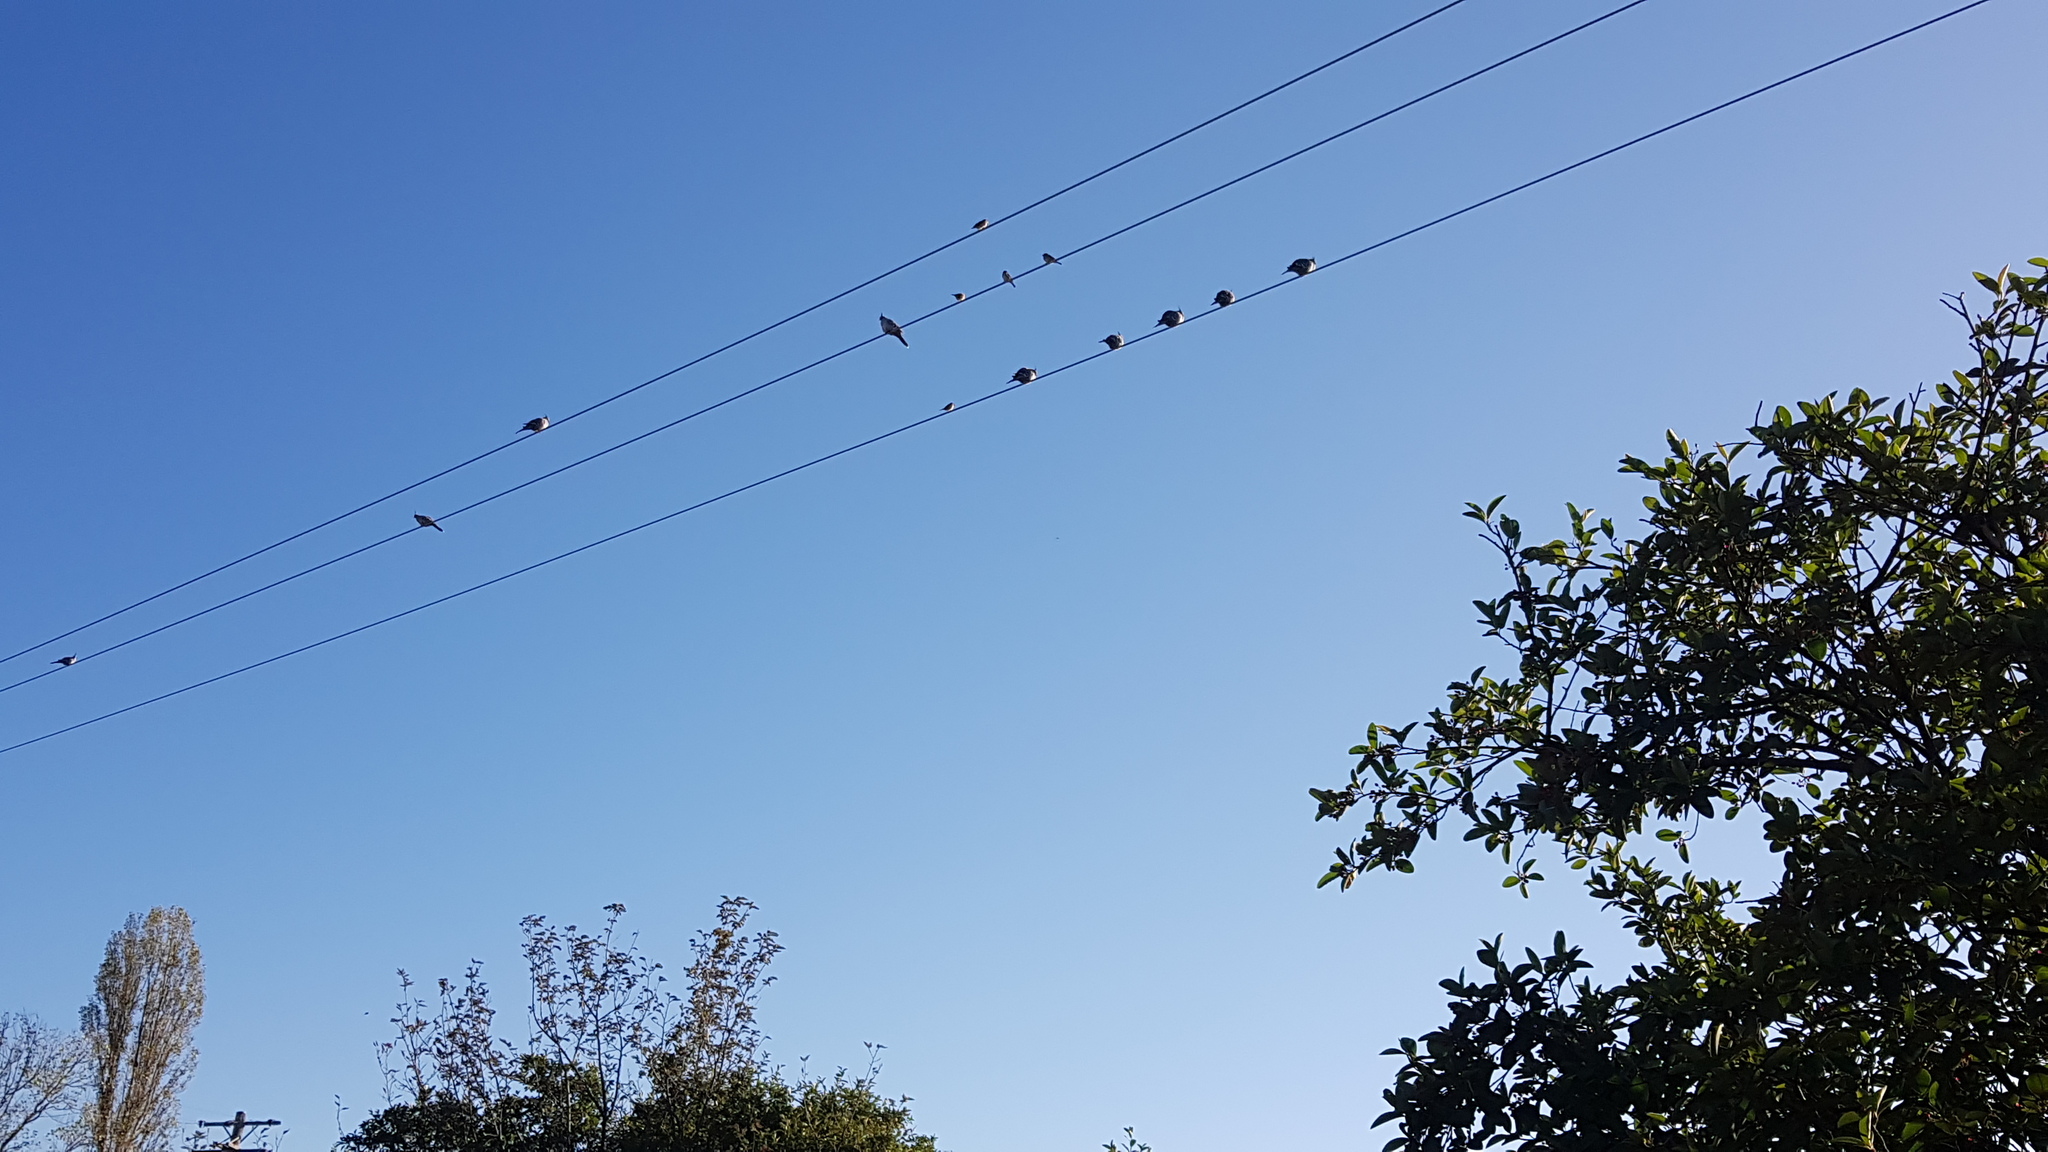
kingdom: Animalia
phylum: Chordata
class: Aves
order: Columbiformes
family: Columbidae
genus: Ocyphaps
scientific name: Ocyphaps lophotes
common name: Crested pigeon
